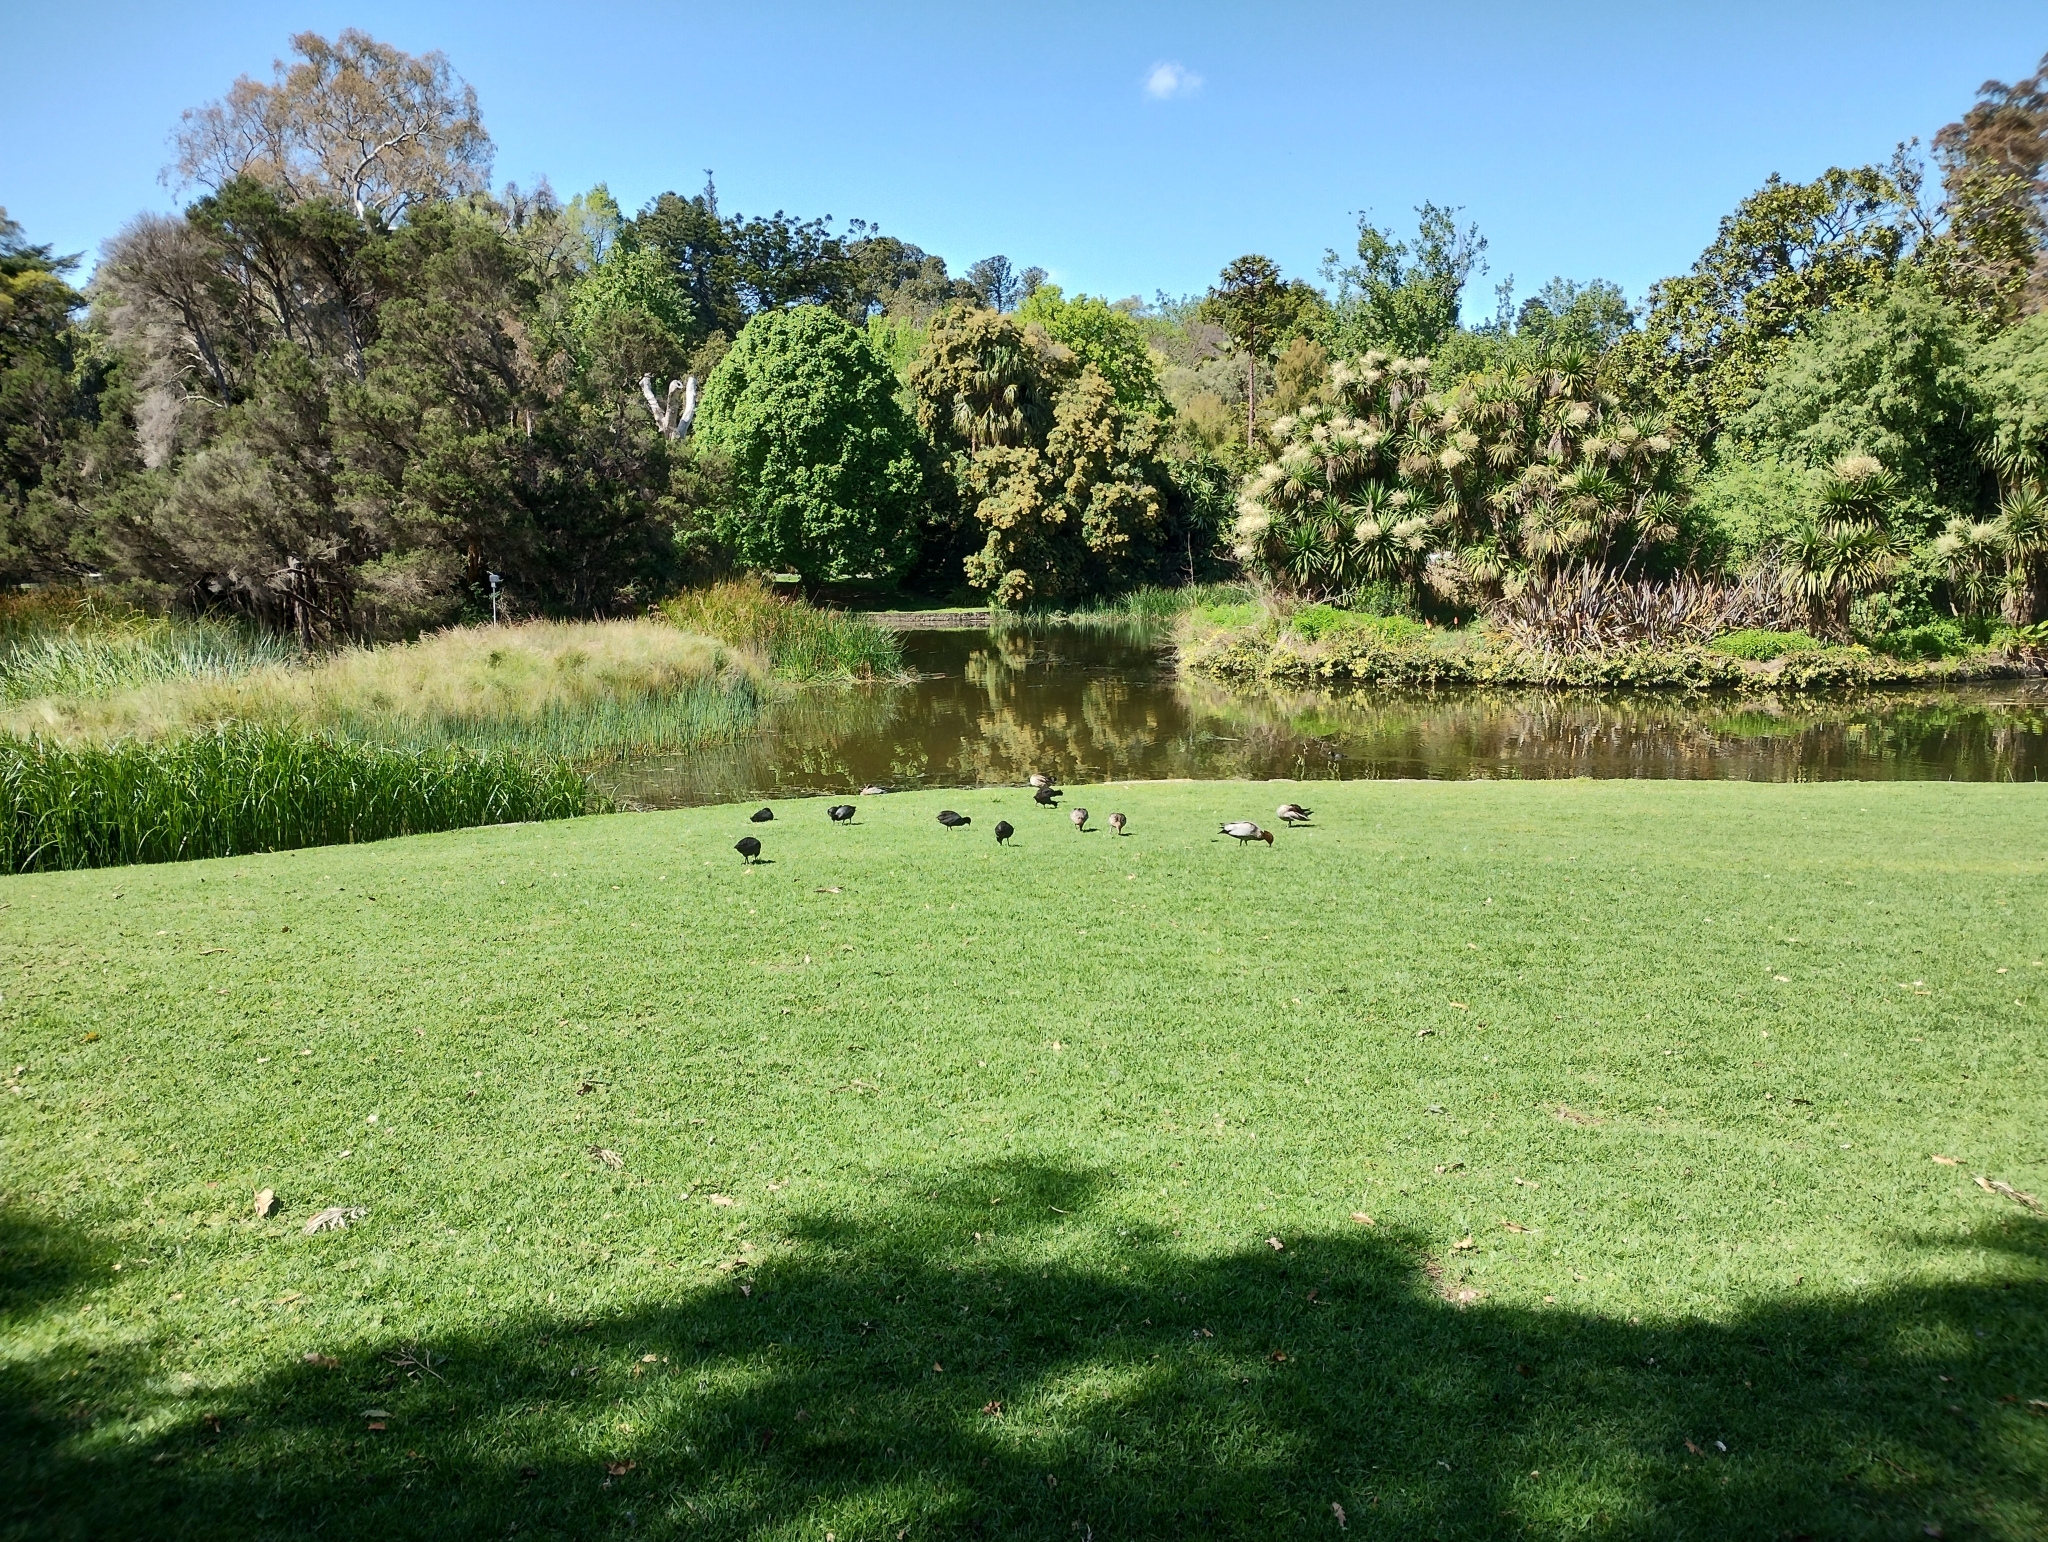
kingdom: Animalia
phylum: Chordata
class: Aves
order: Gruiformes
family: Rallidae
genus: Fulica
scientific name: Fulica atra
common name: Eurasian coot
